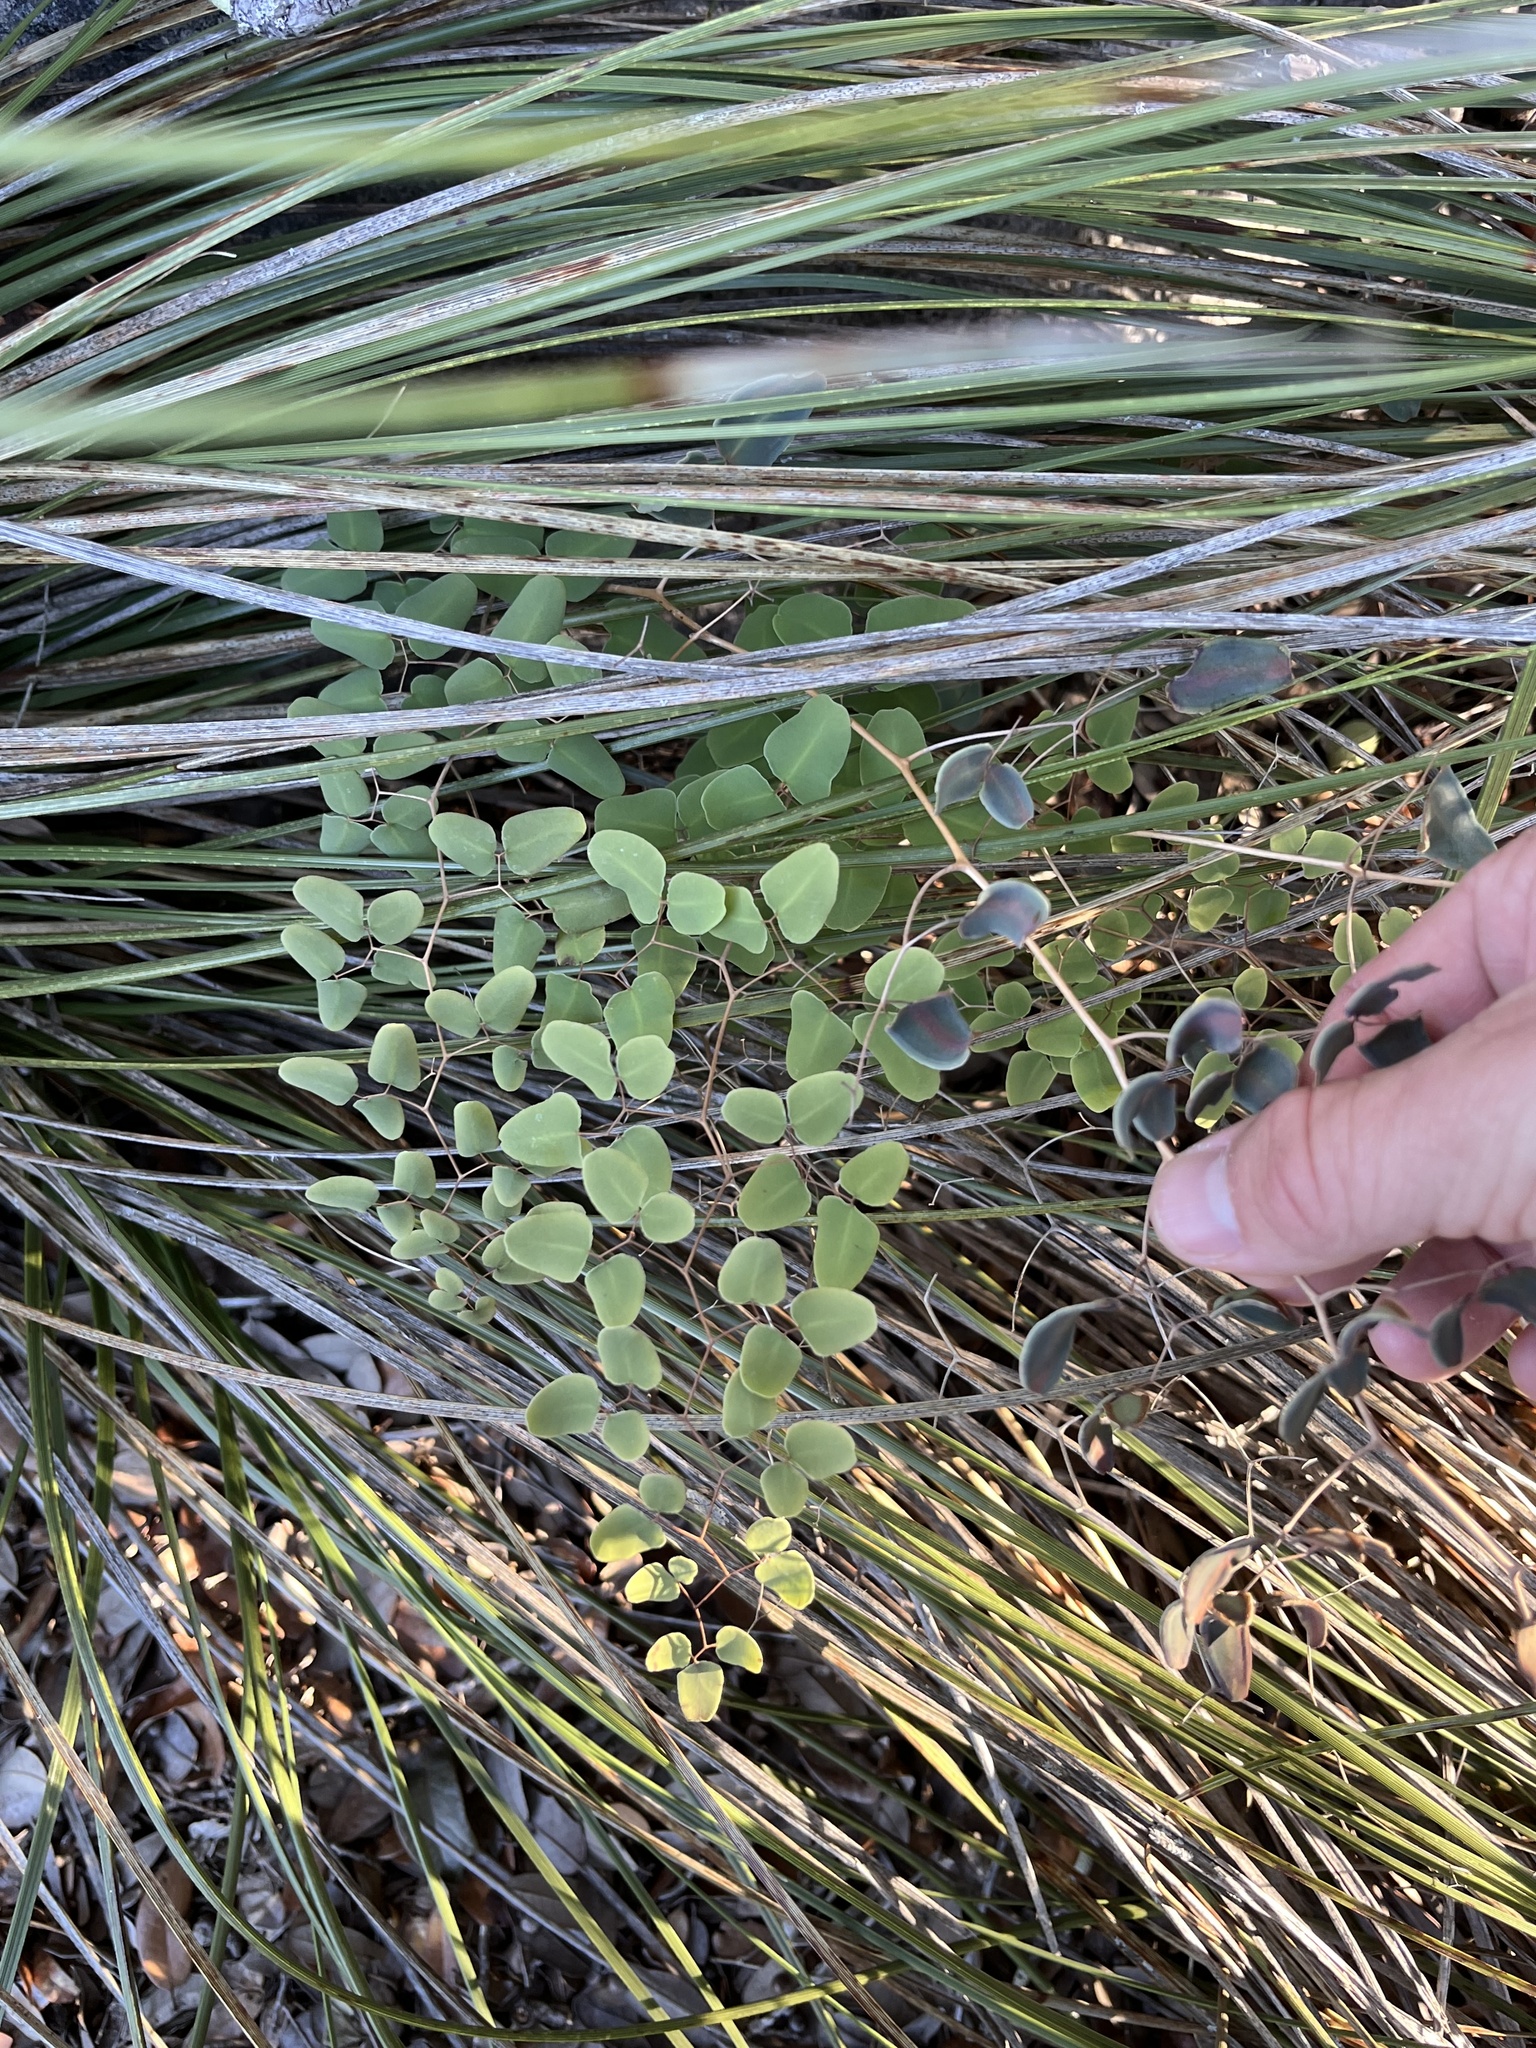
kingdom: Plantae
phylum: Tracheophyta
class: Polypodiopsida
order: Polypodiales
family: Pteridaceae
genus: Pellaea
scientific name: Pellaea ovata
